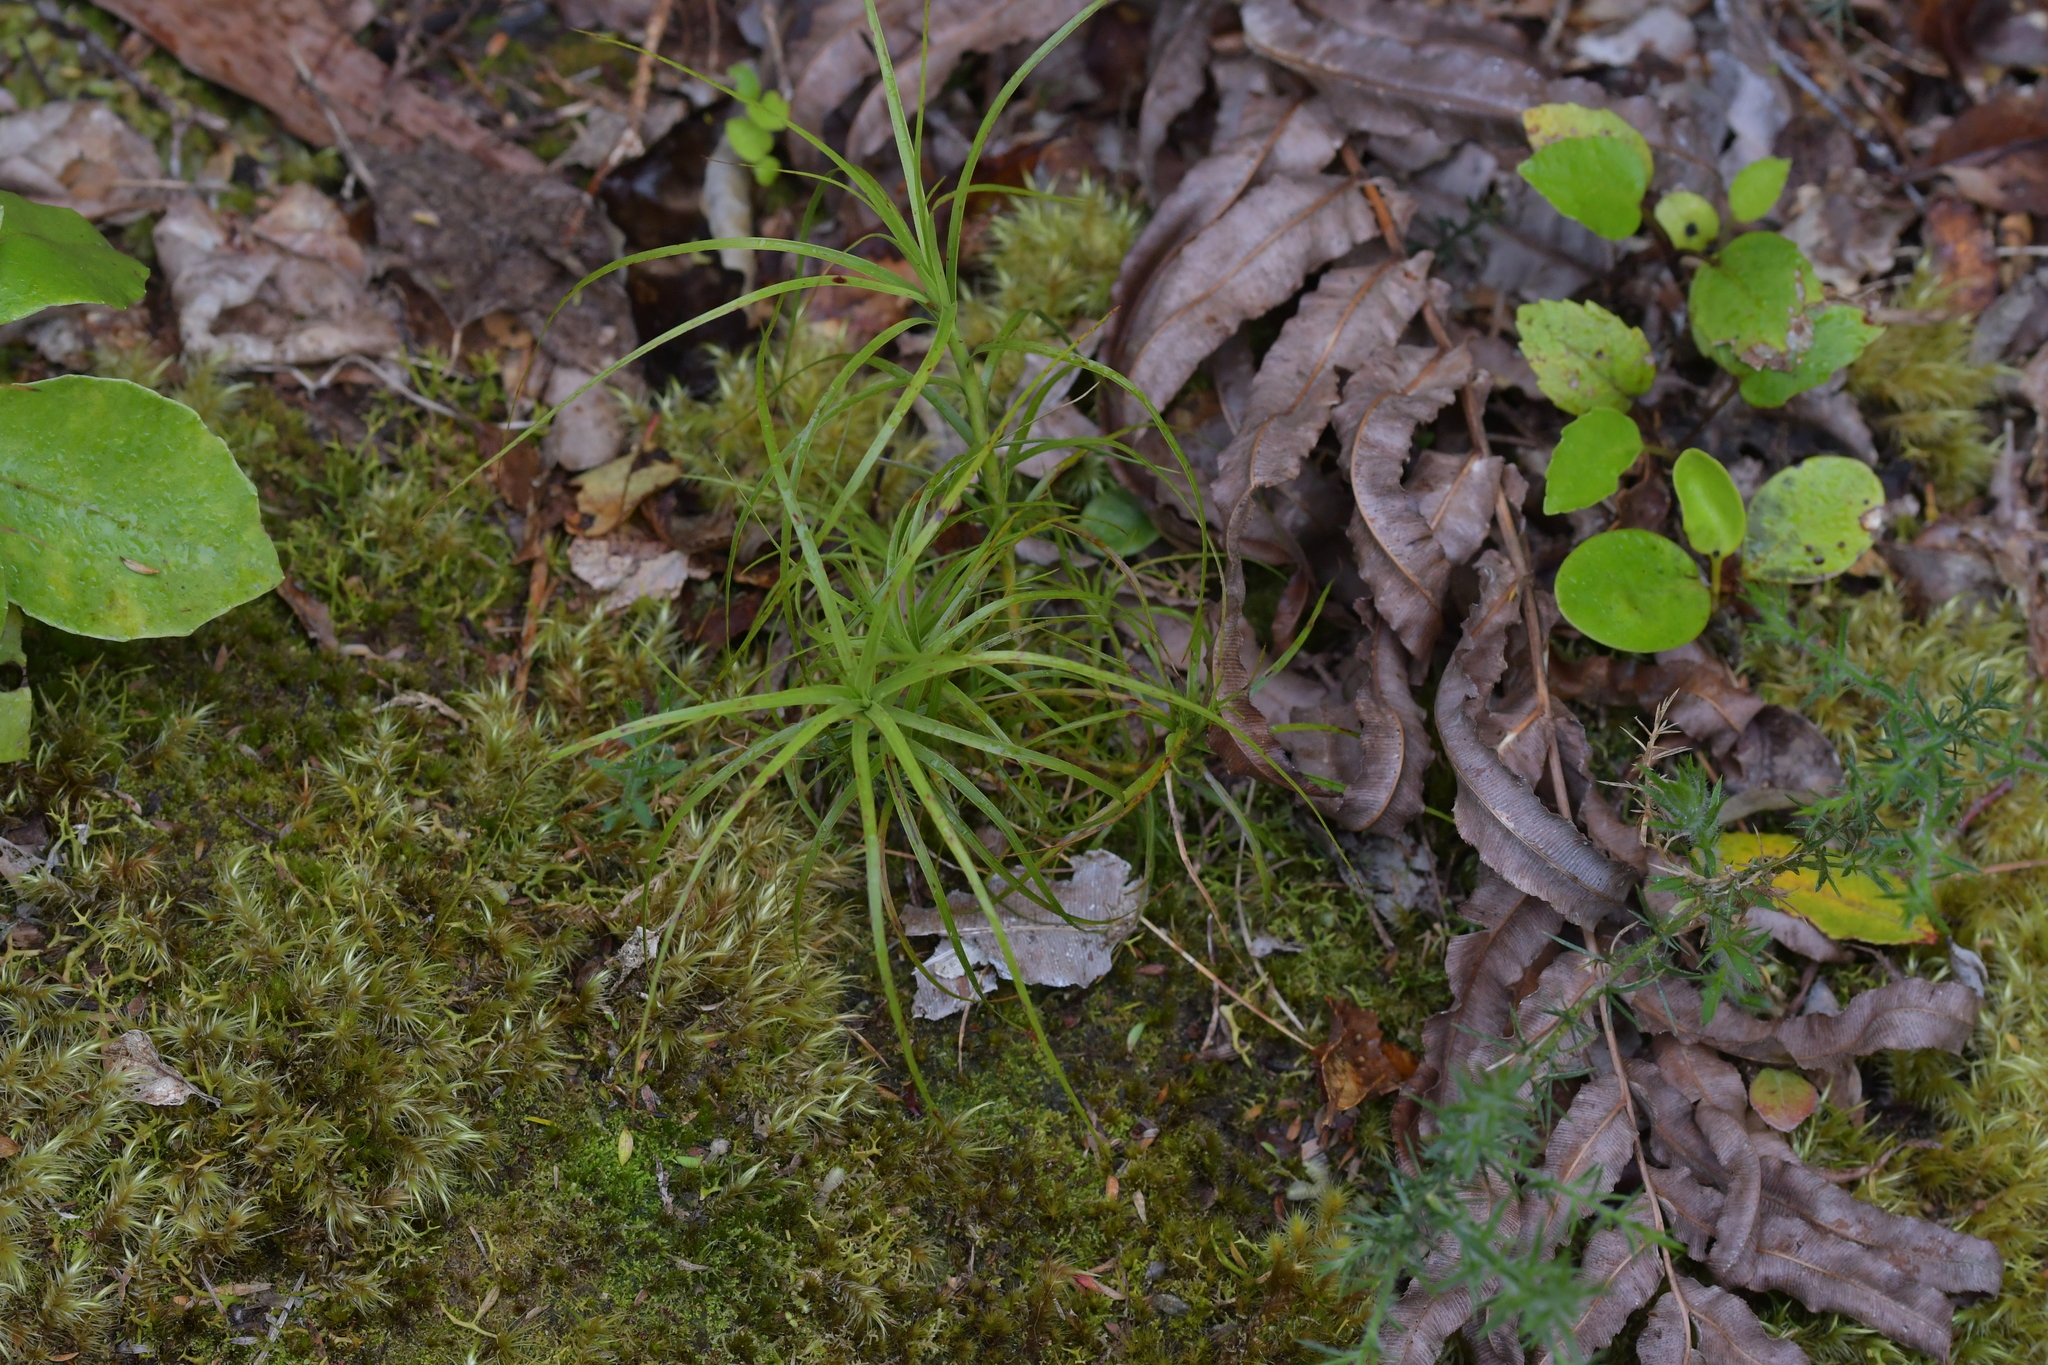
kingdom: Plantae
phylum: Tracheophyta
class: Magnoliopsida
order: Ericales
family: Ericaceae
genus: Dracophyllum
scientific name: Dracophyllum filifolium
